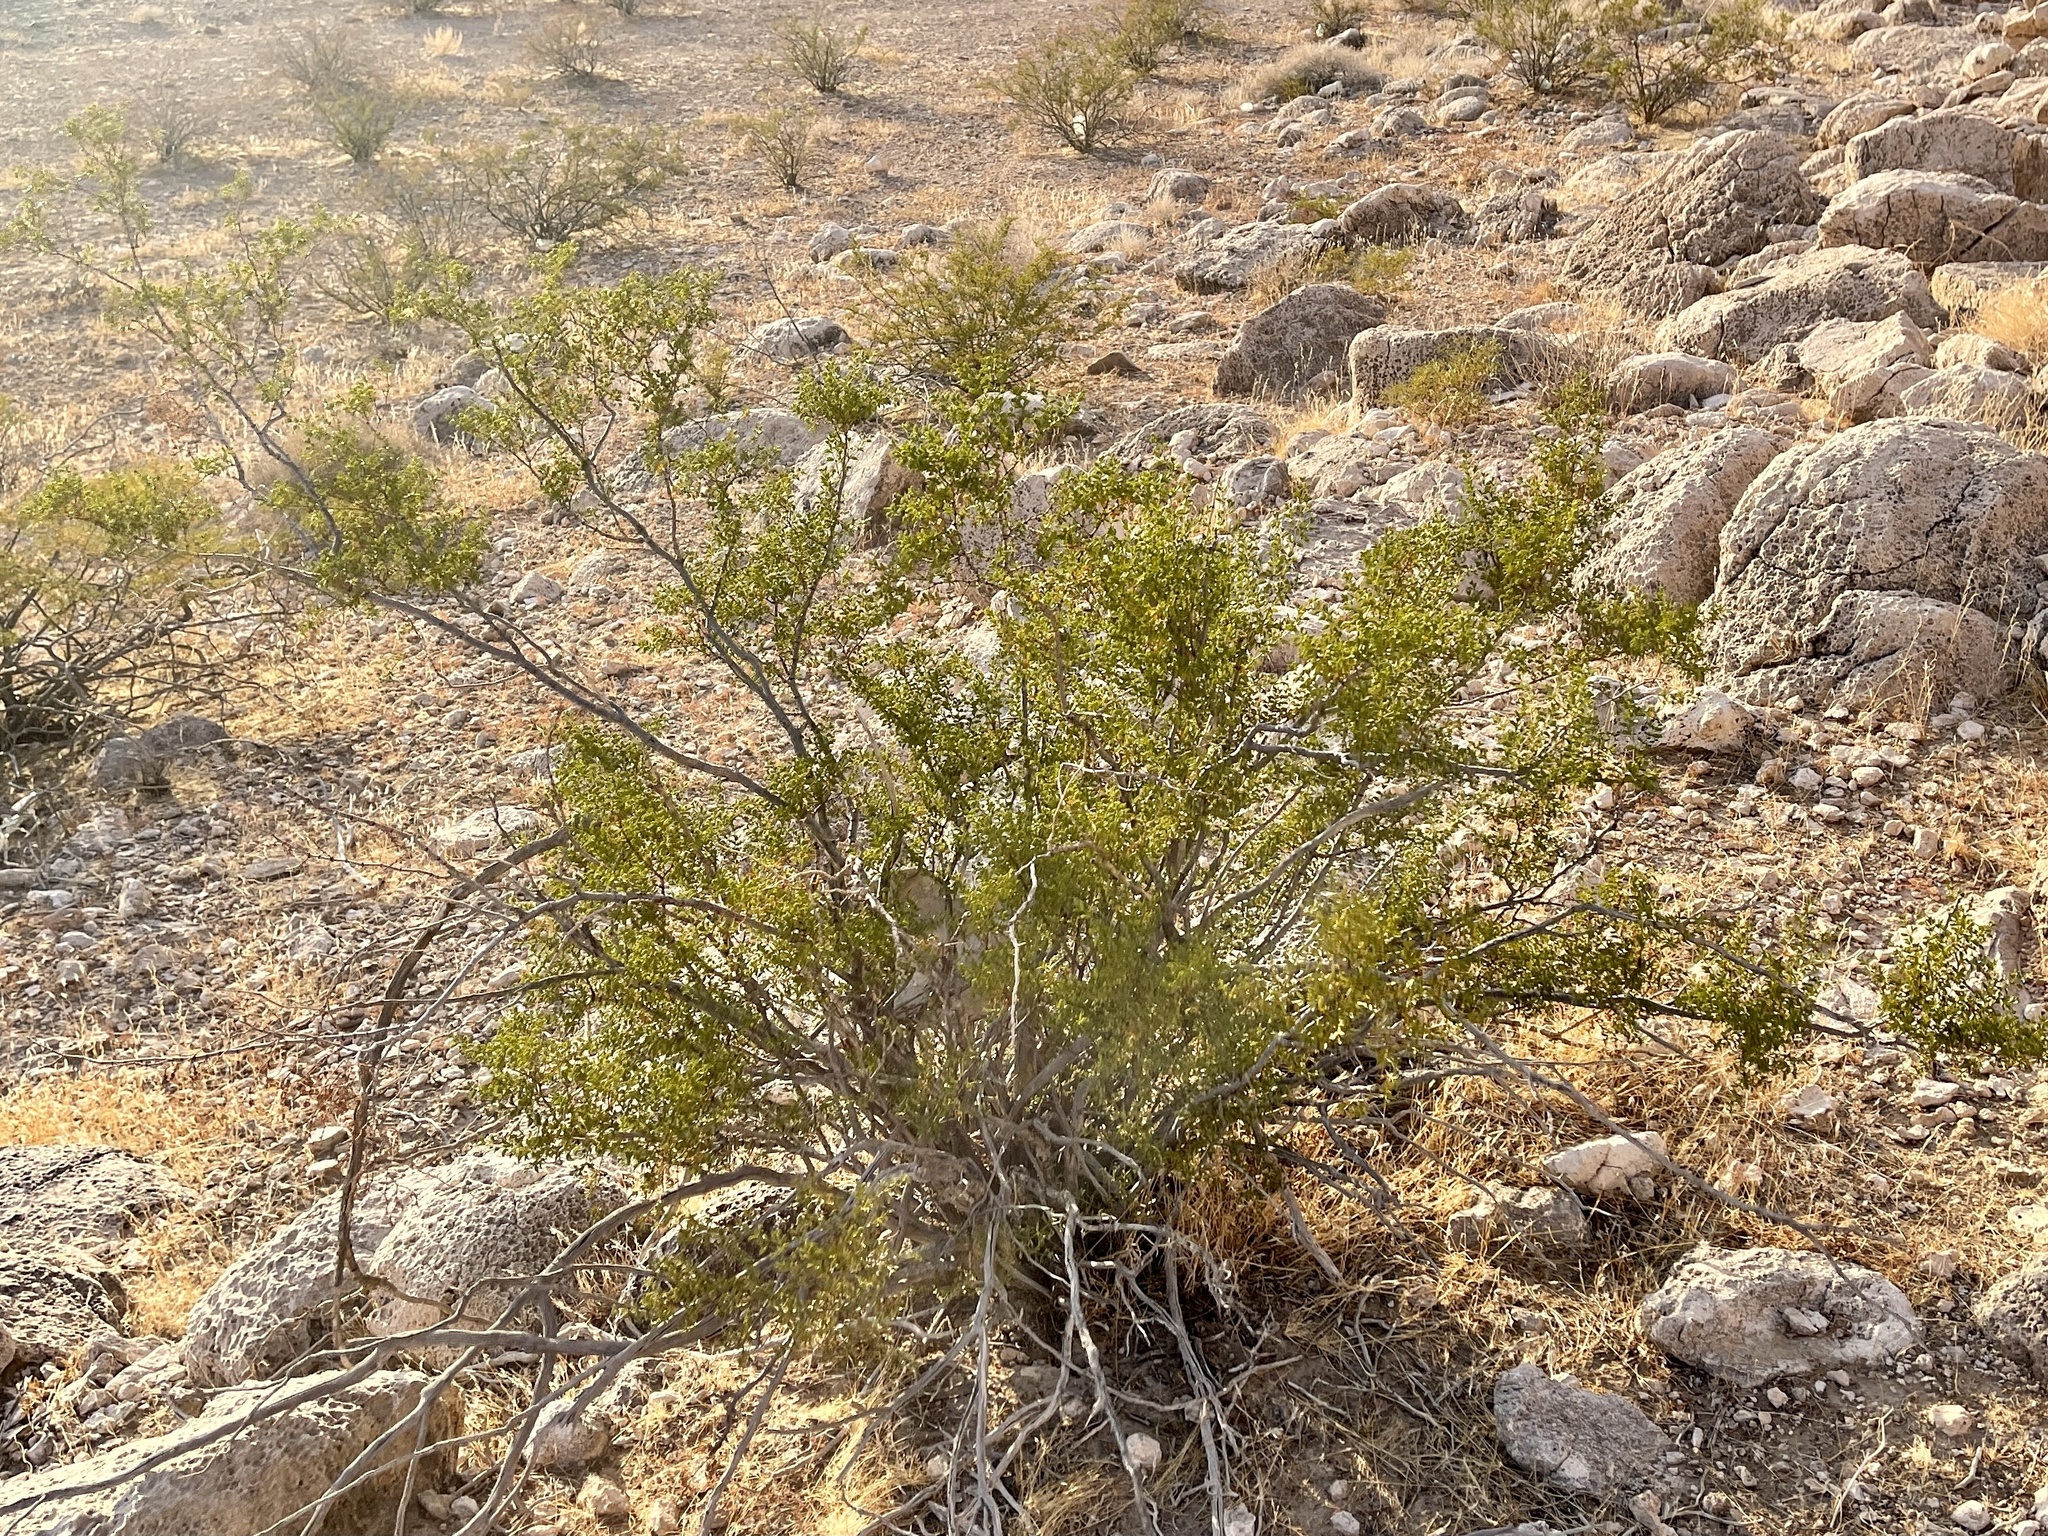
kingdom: Plantae
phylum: Tracheophyta
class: Magnoliopsida
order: Zygophyllales
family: Zygophyllaceae
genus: Larrea
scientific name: Larrea tridentata
